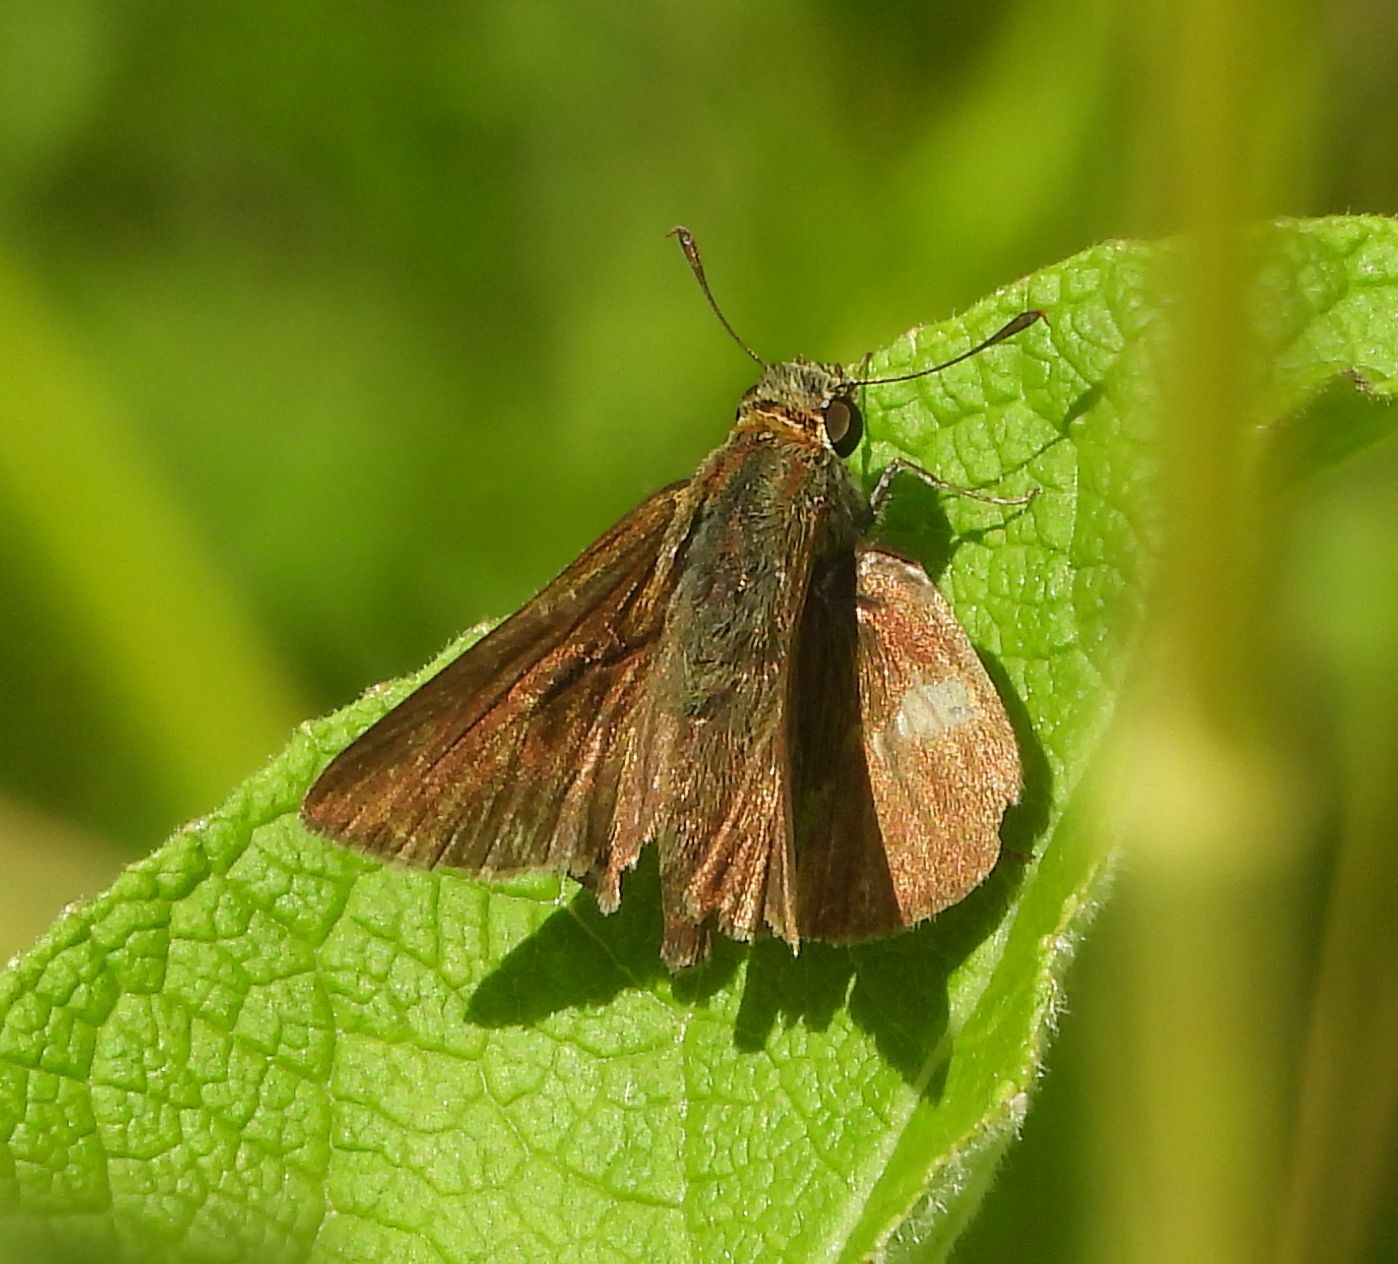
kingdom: Animalia
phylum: Arthropoda
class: Insecta
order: Lepidoptera
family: Hesperiidae
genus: Euphyes
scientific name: Euphyes vestris
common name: Dun skipper
